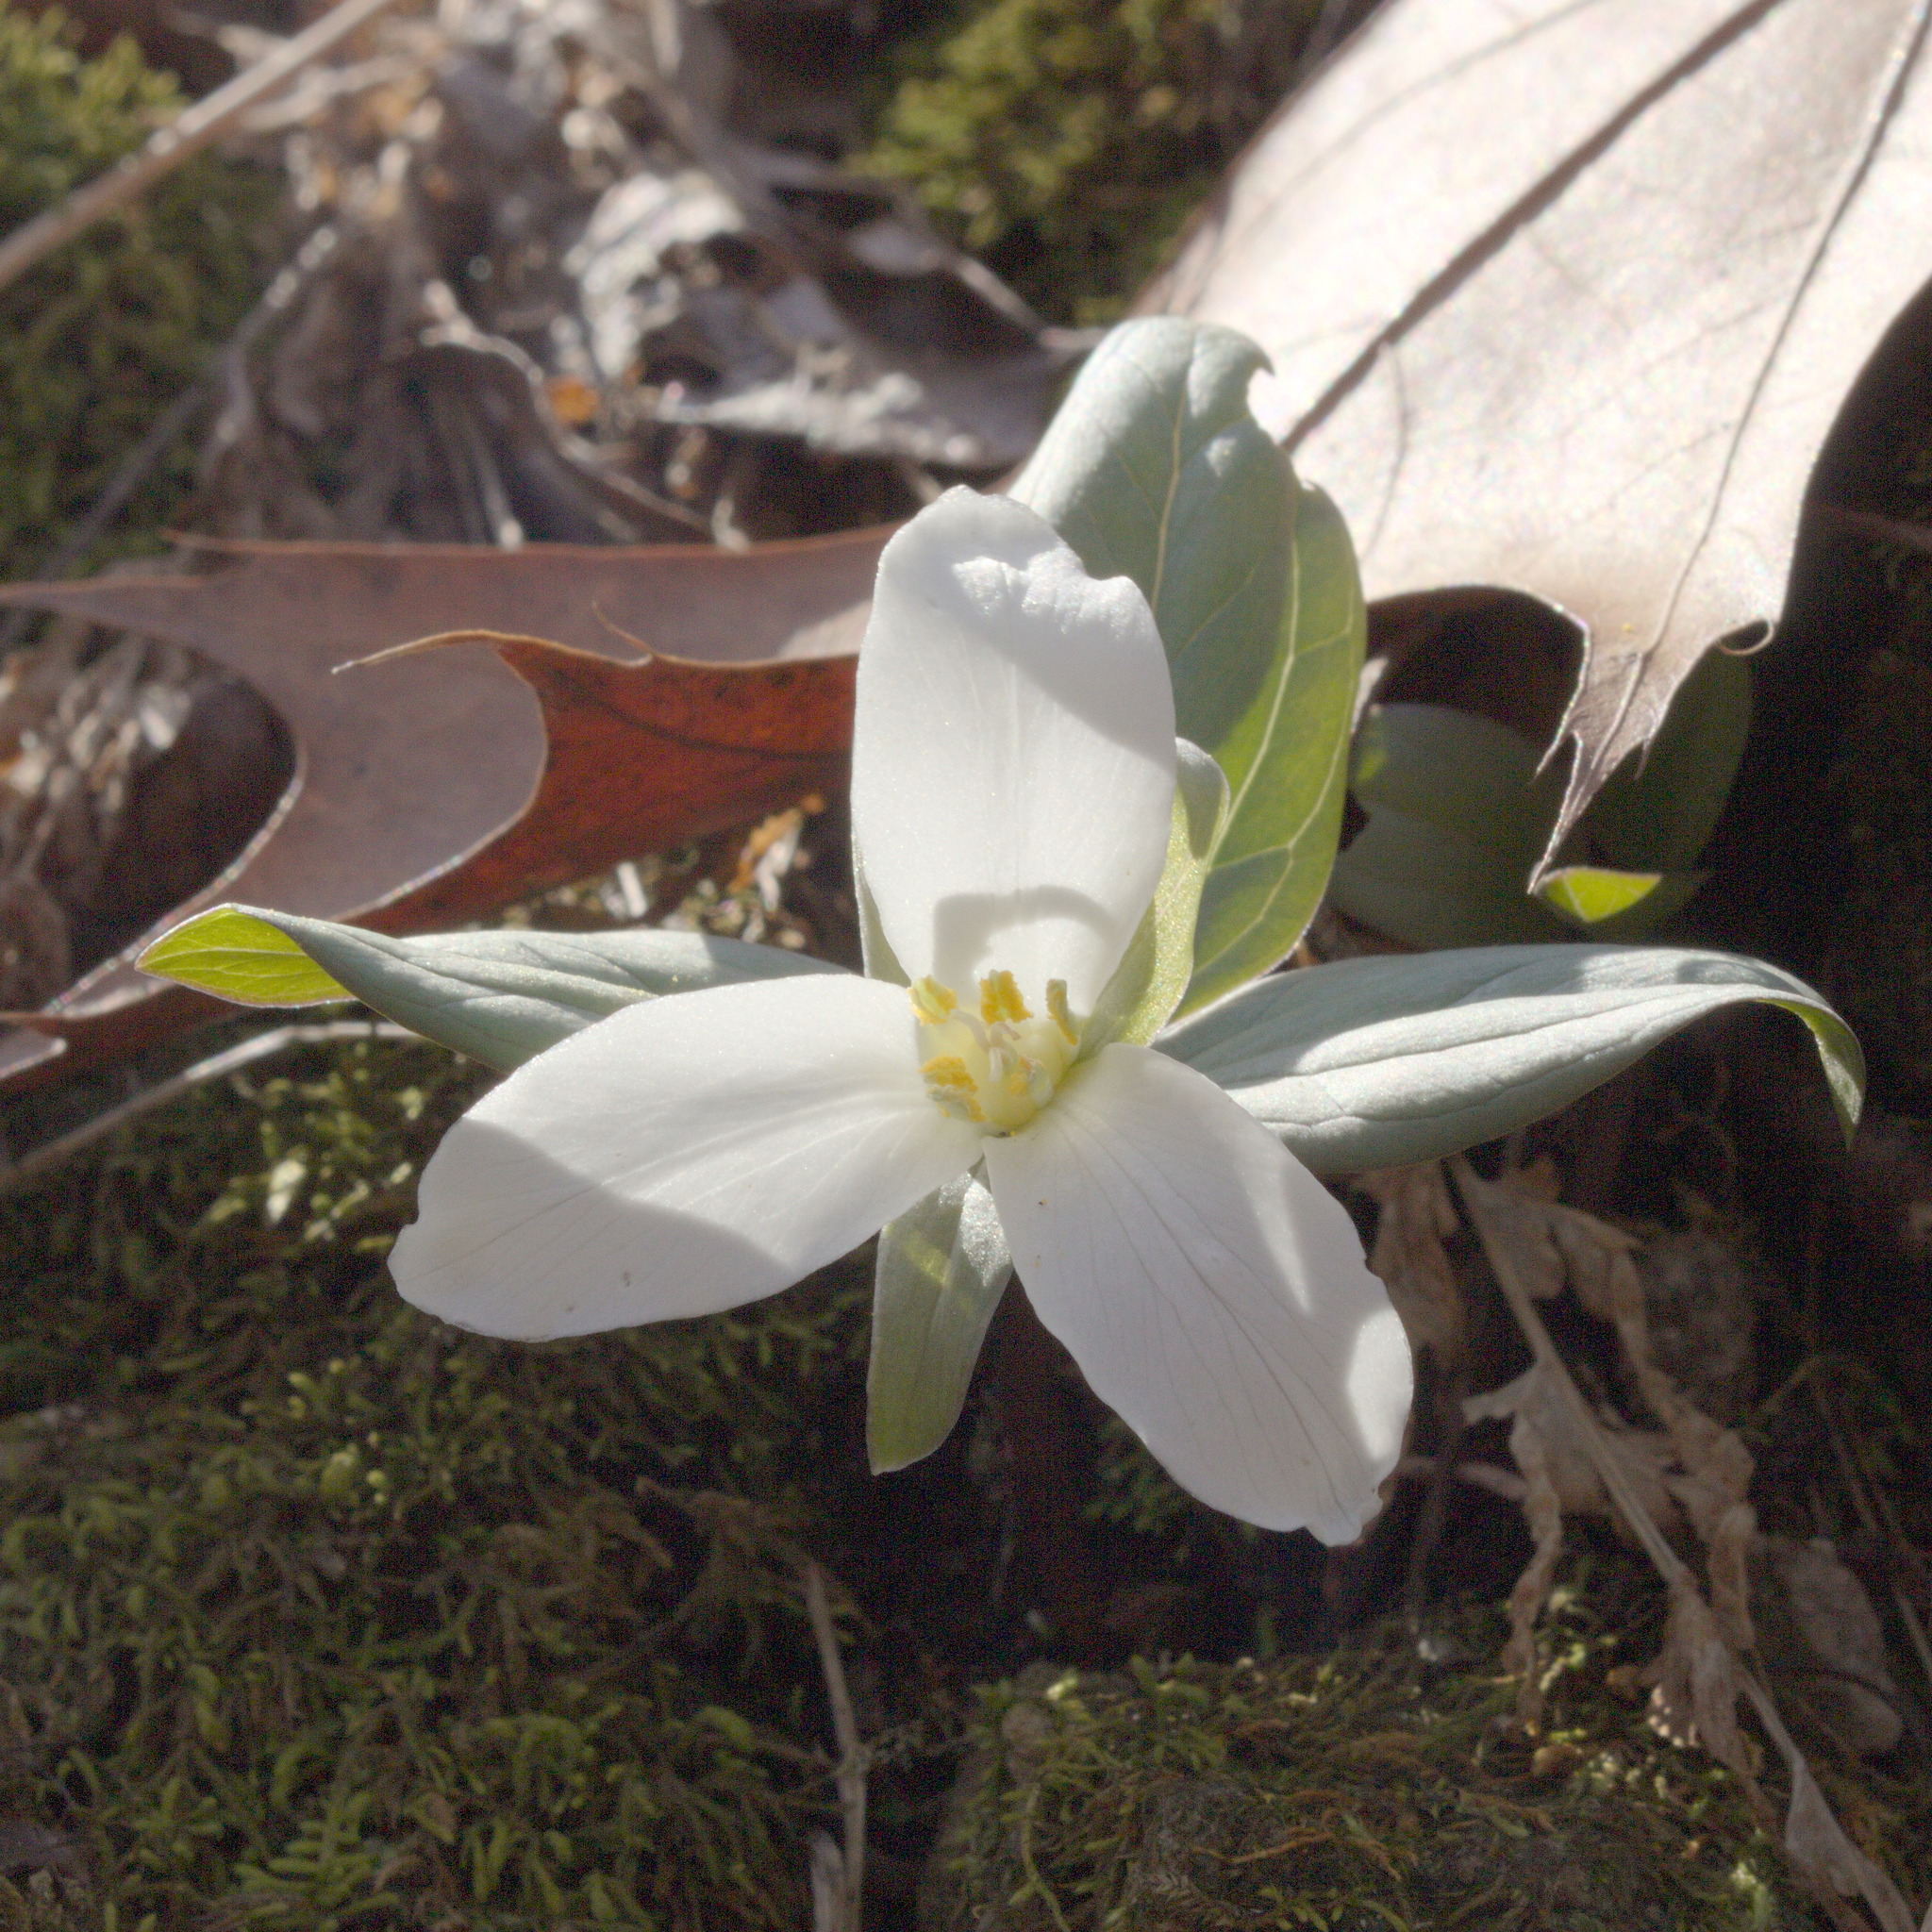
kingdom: Plantae
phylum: Tracheophyta
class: Liliopsida
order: Liliales
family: Melanthiaceae
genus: Trillium
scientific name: Trillium nivale
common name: Dwarf white trillium
